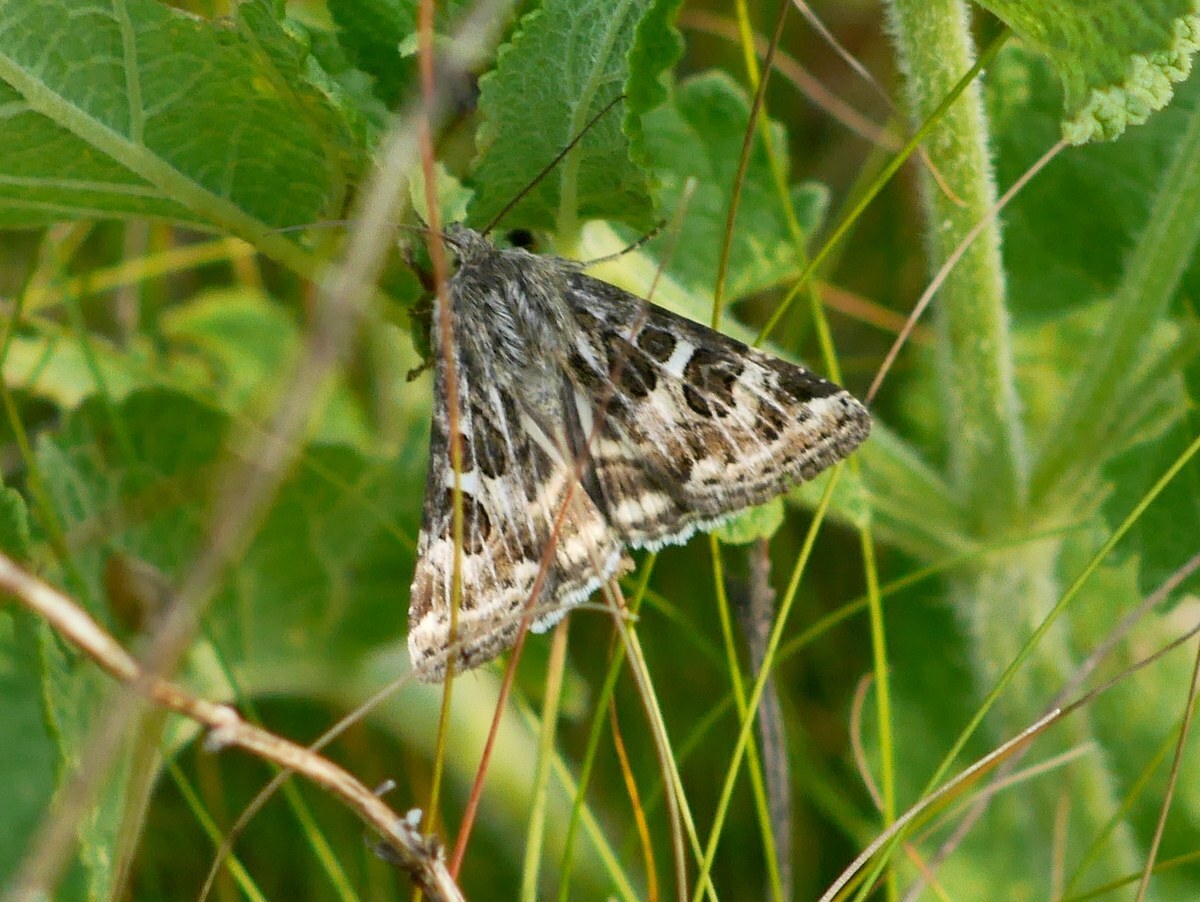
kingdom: Animalia
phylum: Arthropoda
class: Insecta
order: Lepidoptera
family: Noctuidae
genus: Protoschinia
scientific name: Protoschinia scutosa
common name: Spotted clover
